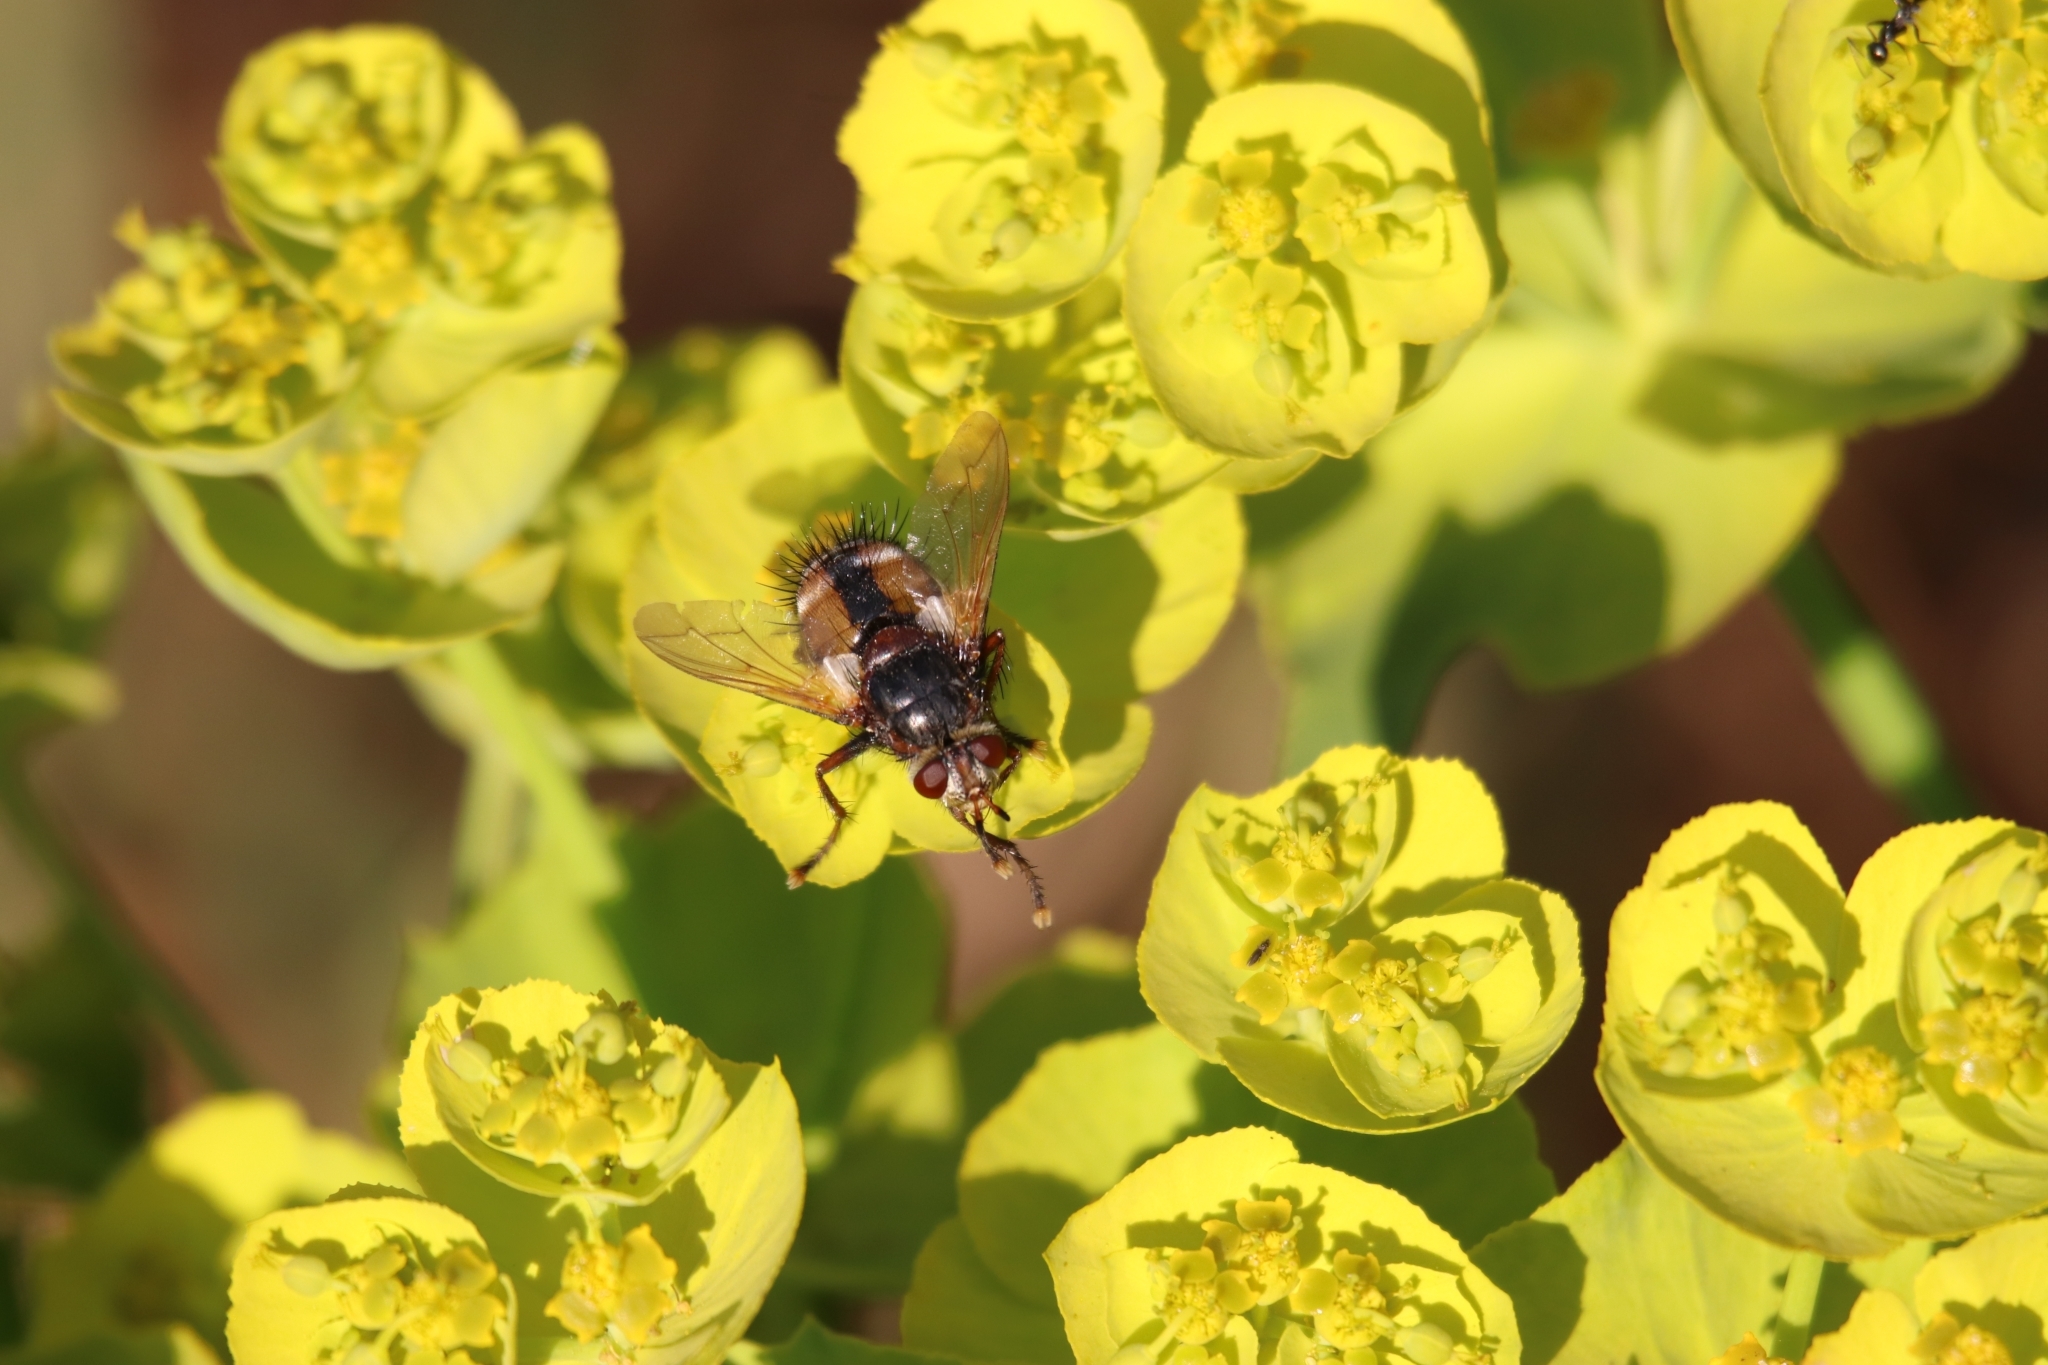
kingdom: Animalia
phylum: Arthropoda
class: Insecta
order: Diptera
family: Tachinidae
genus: Tachina
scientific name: Tachina fera
